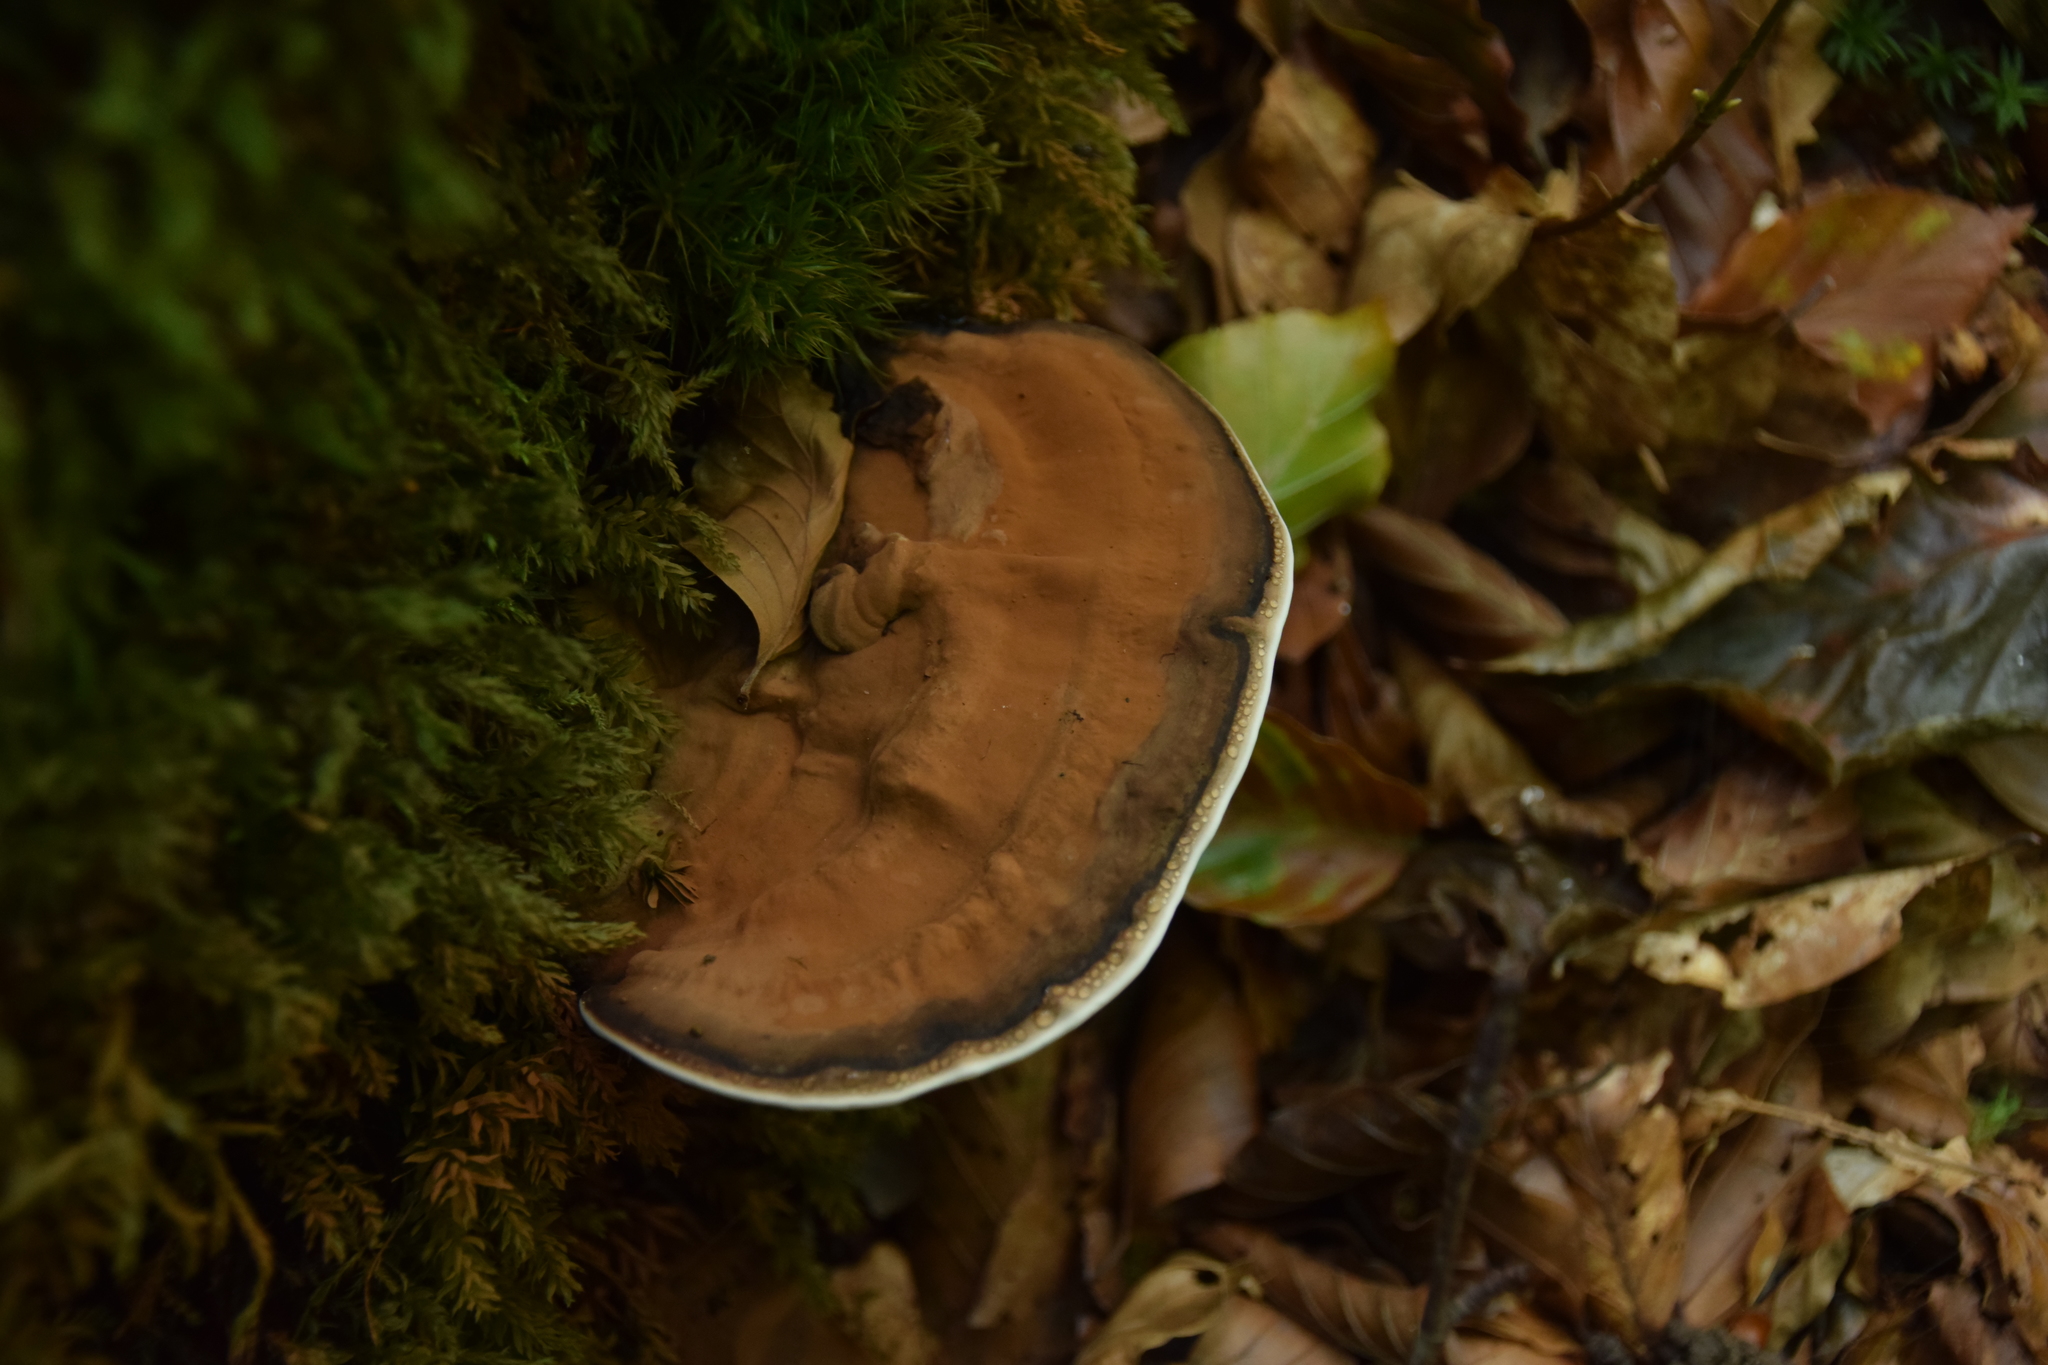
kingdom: Fungi
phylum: Basidiomycota
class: Agaricomycetes
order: Polyporales
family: Polyporaceae
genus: Ganoderma
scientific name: Ganoderma applanatum
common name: Artist's bracket
